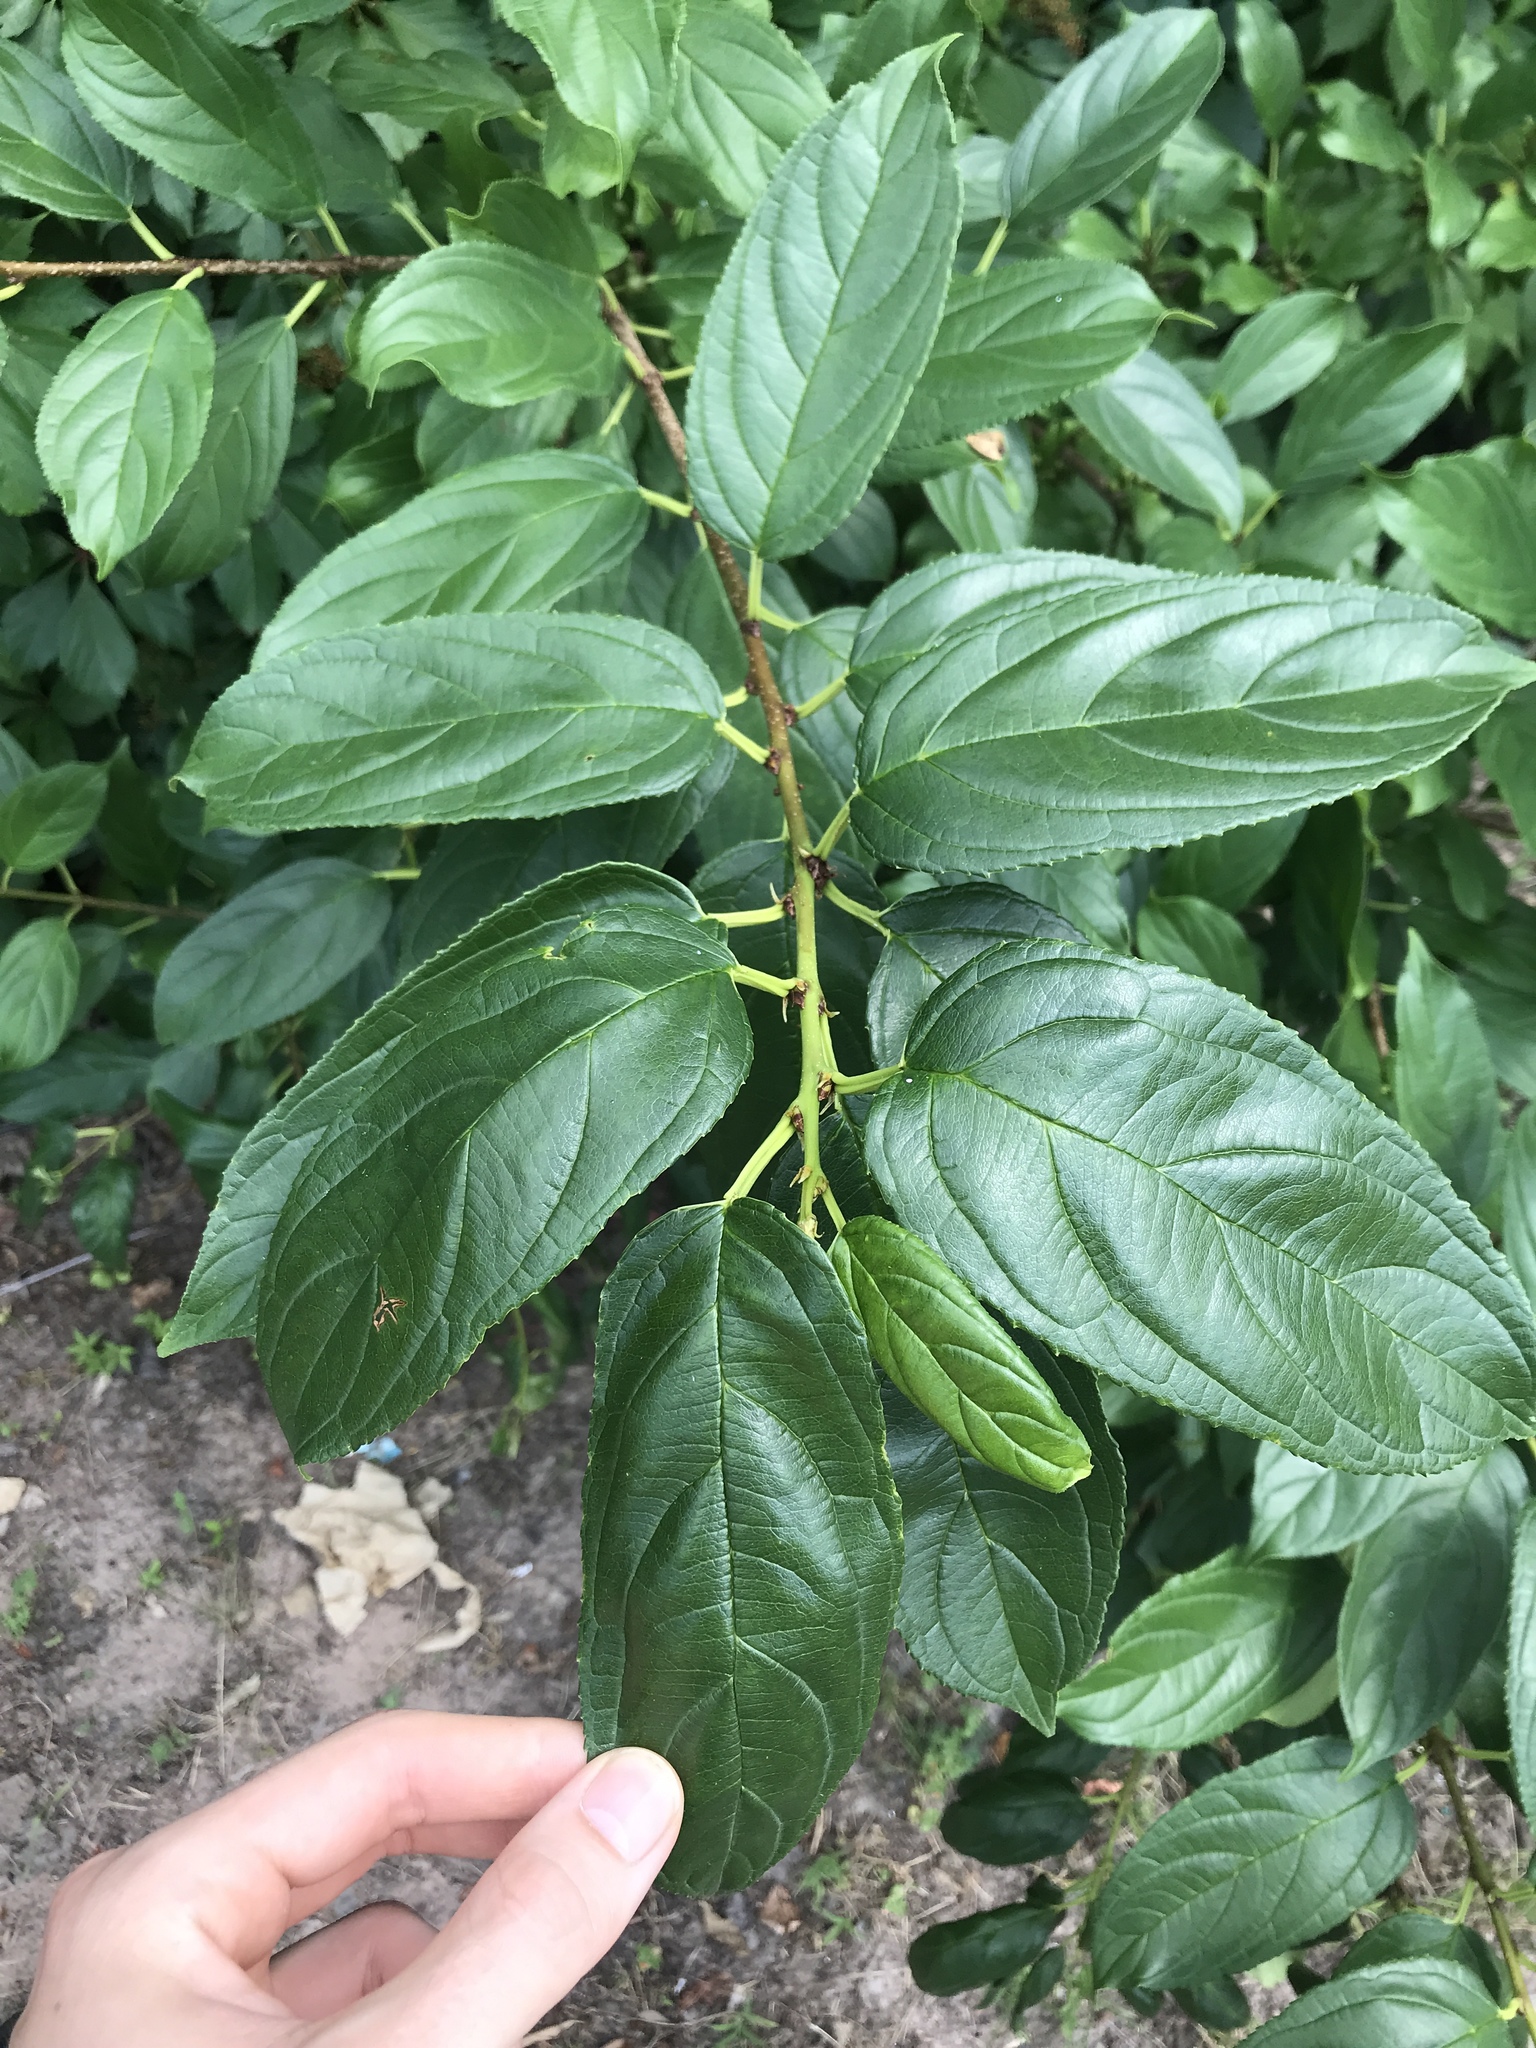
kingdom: Plantae
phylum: Tracheophyta
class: Magnoliopsida
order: Rosales
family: Rhamnaceae
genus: Rhamnus
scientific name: Rhamnus cathartica
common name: Common buckthorn
